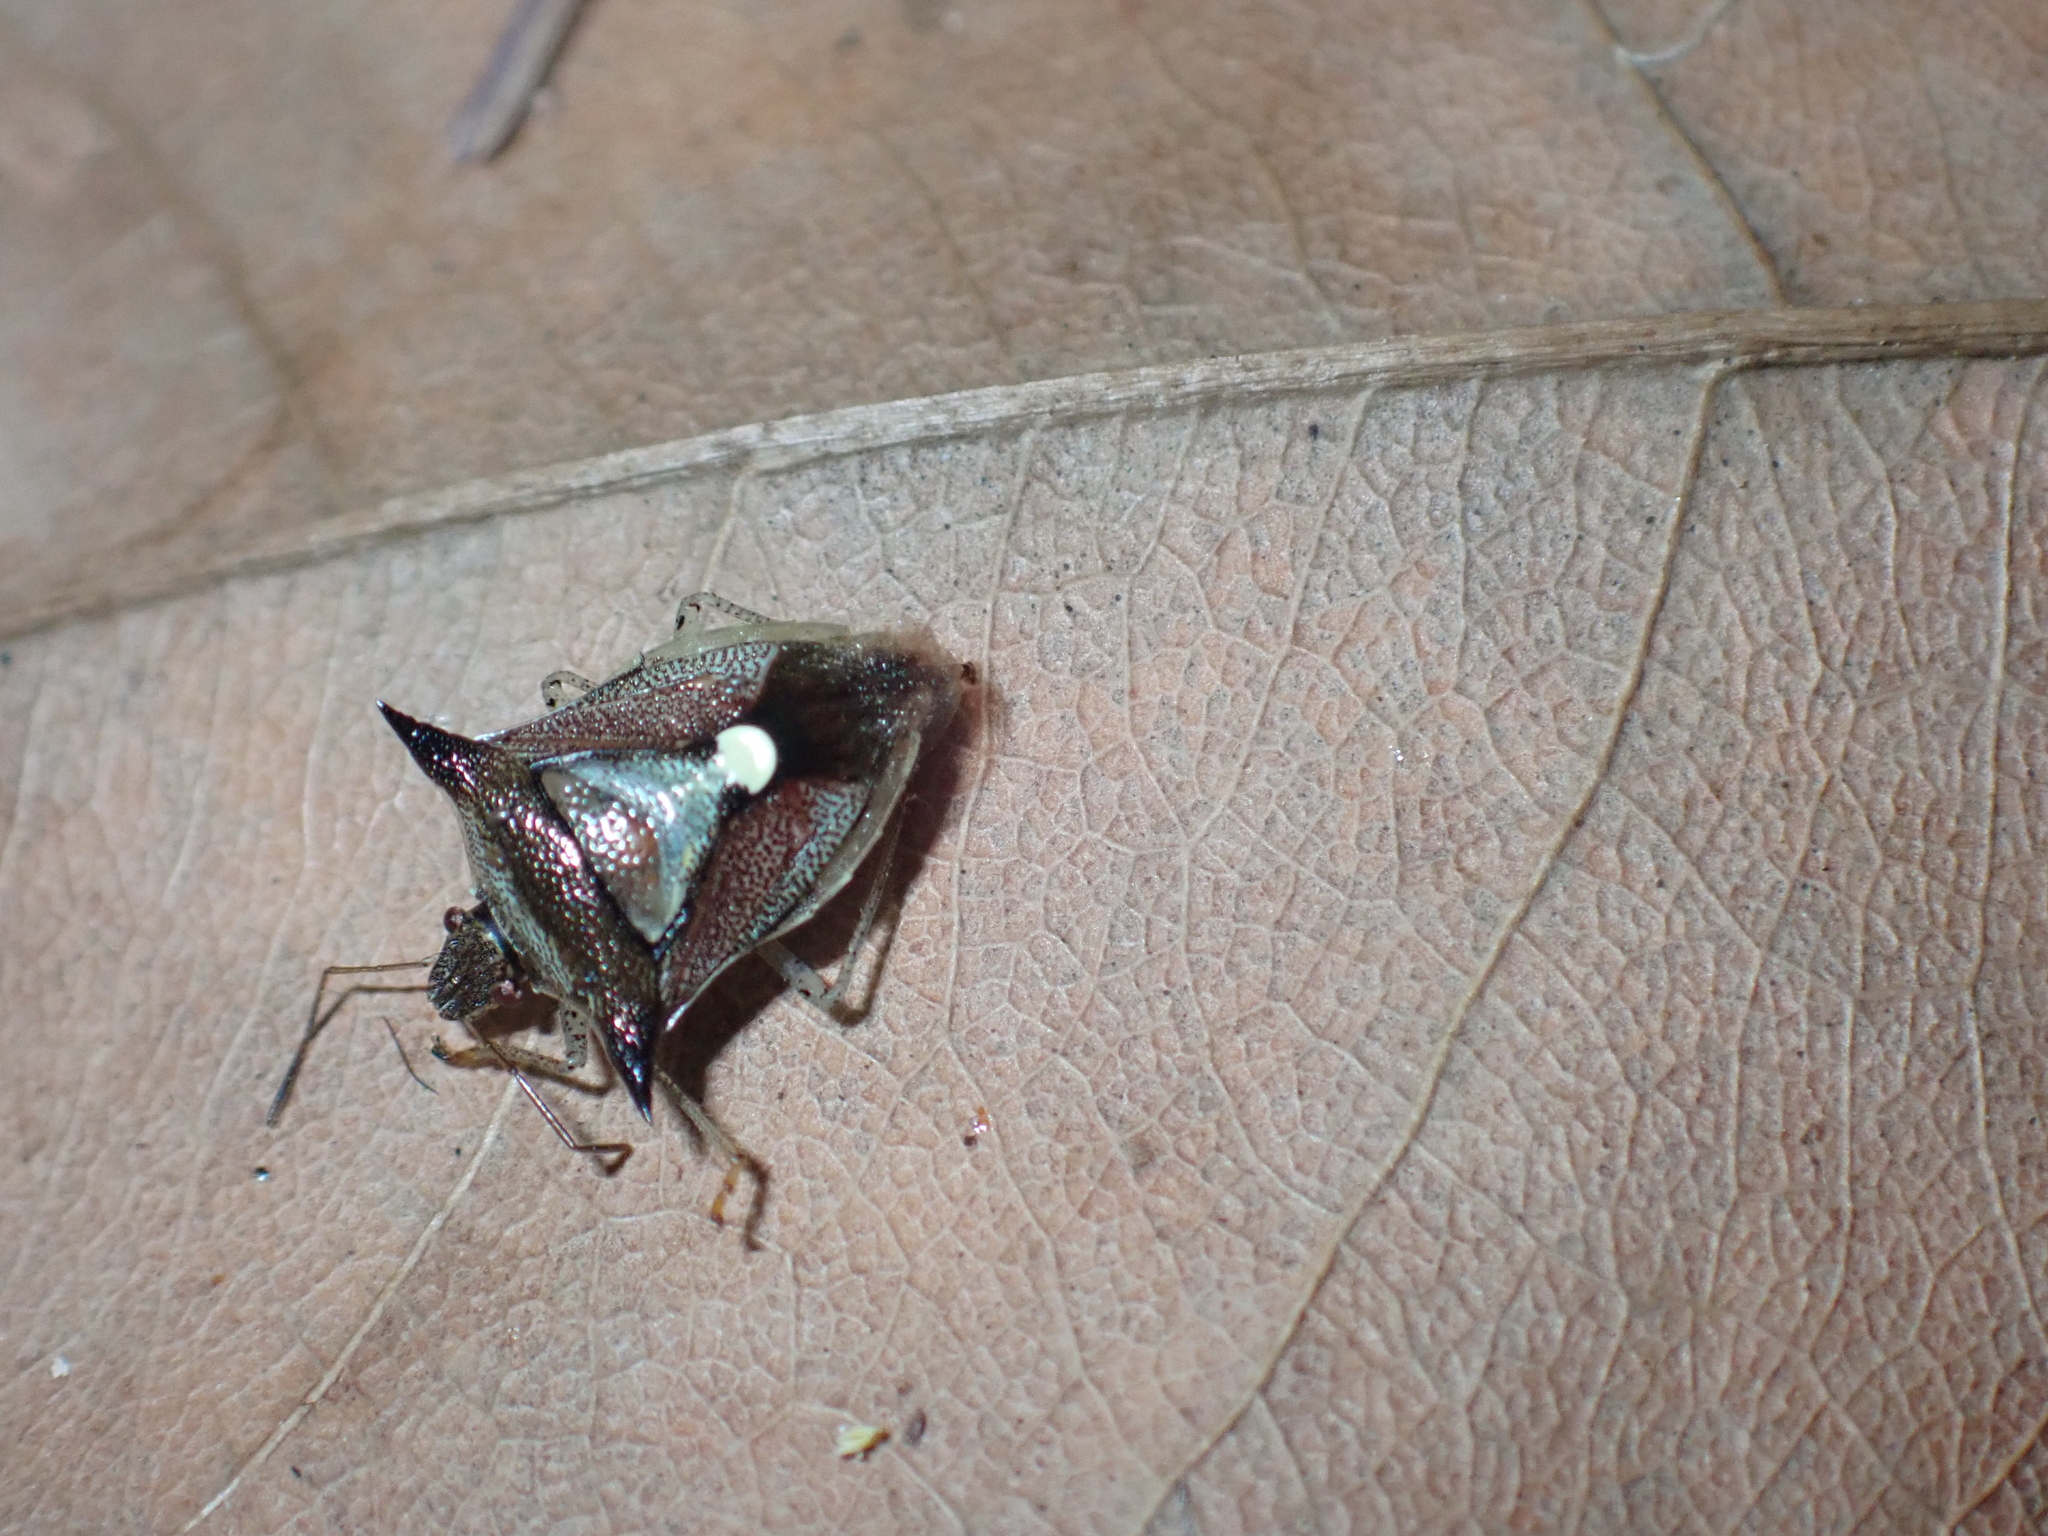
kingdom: Animalia
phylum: Arthropoda
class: Insecta
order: Hemiptera
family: Pentatomidae
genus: Carbula
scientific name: Carbula scutellata
